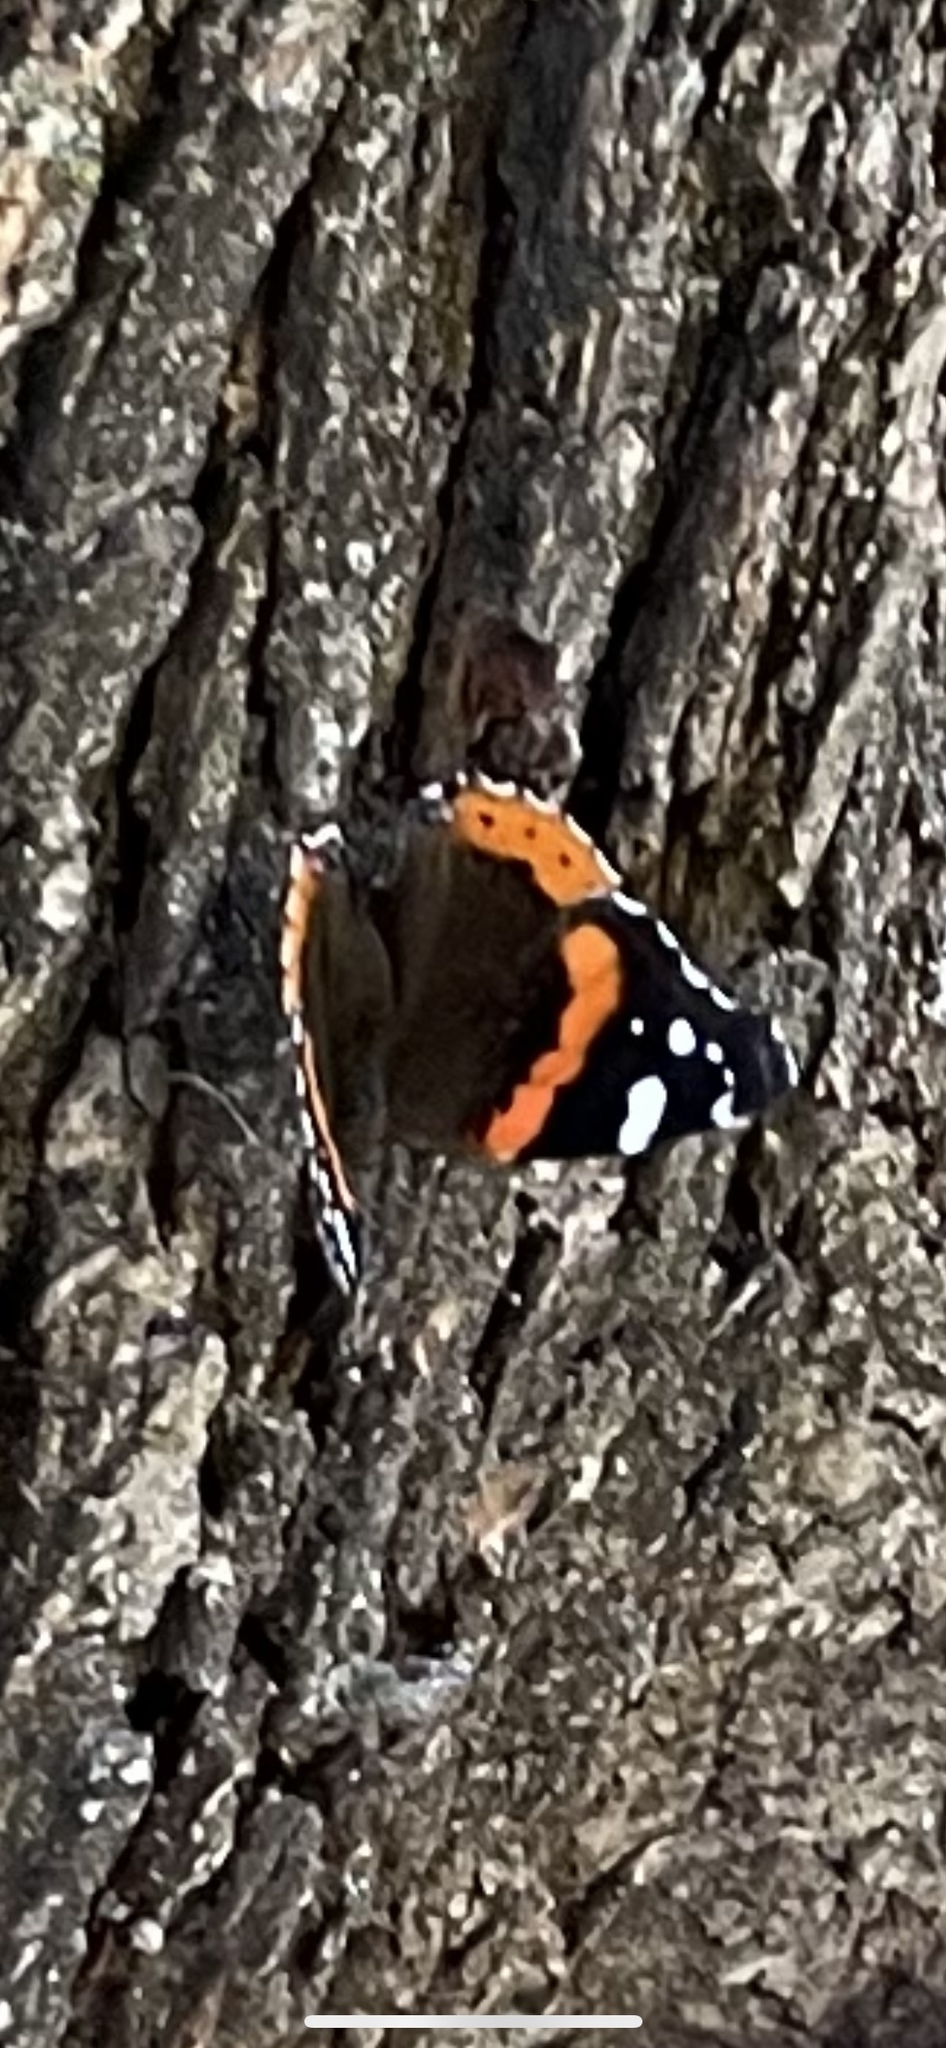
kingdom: Animalia
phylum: Arthropoda
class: Insecta
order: Lepidoptera
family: Nymphalidae
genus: Vanessa
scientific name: Vanessa atalanta
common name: Red admiral
